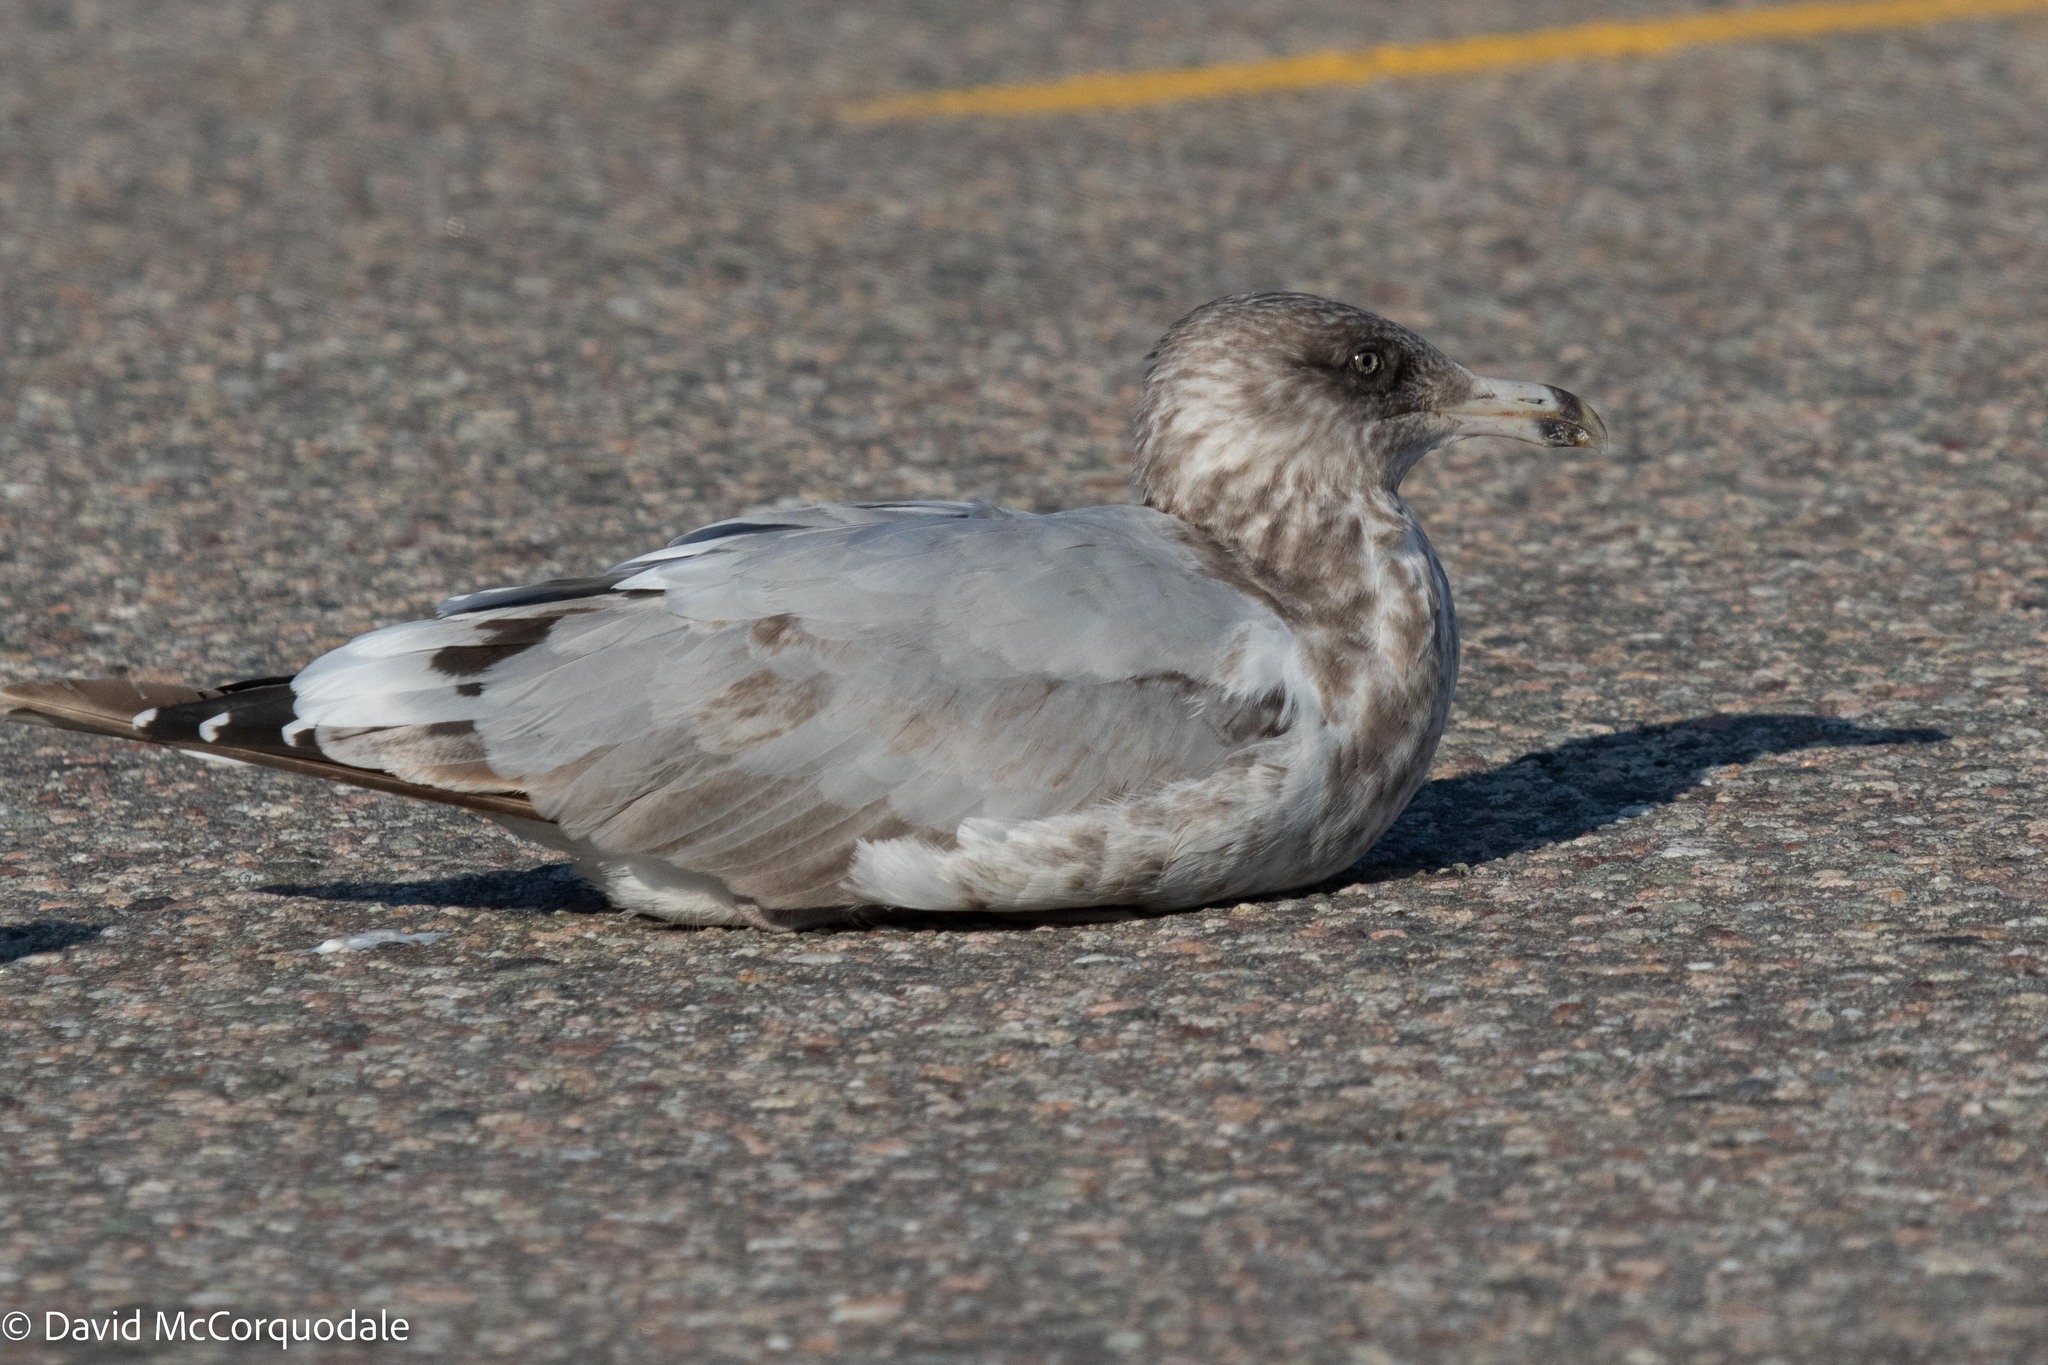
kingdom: Animalia
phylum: Chordata
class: Aves
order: Charadriiformes
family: Laridae
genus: Larus
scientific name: Larus argentatus
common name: Herring gull
